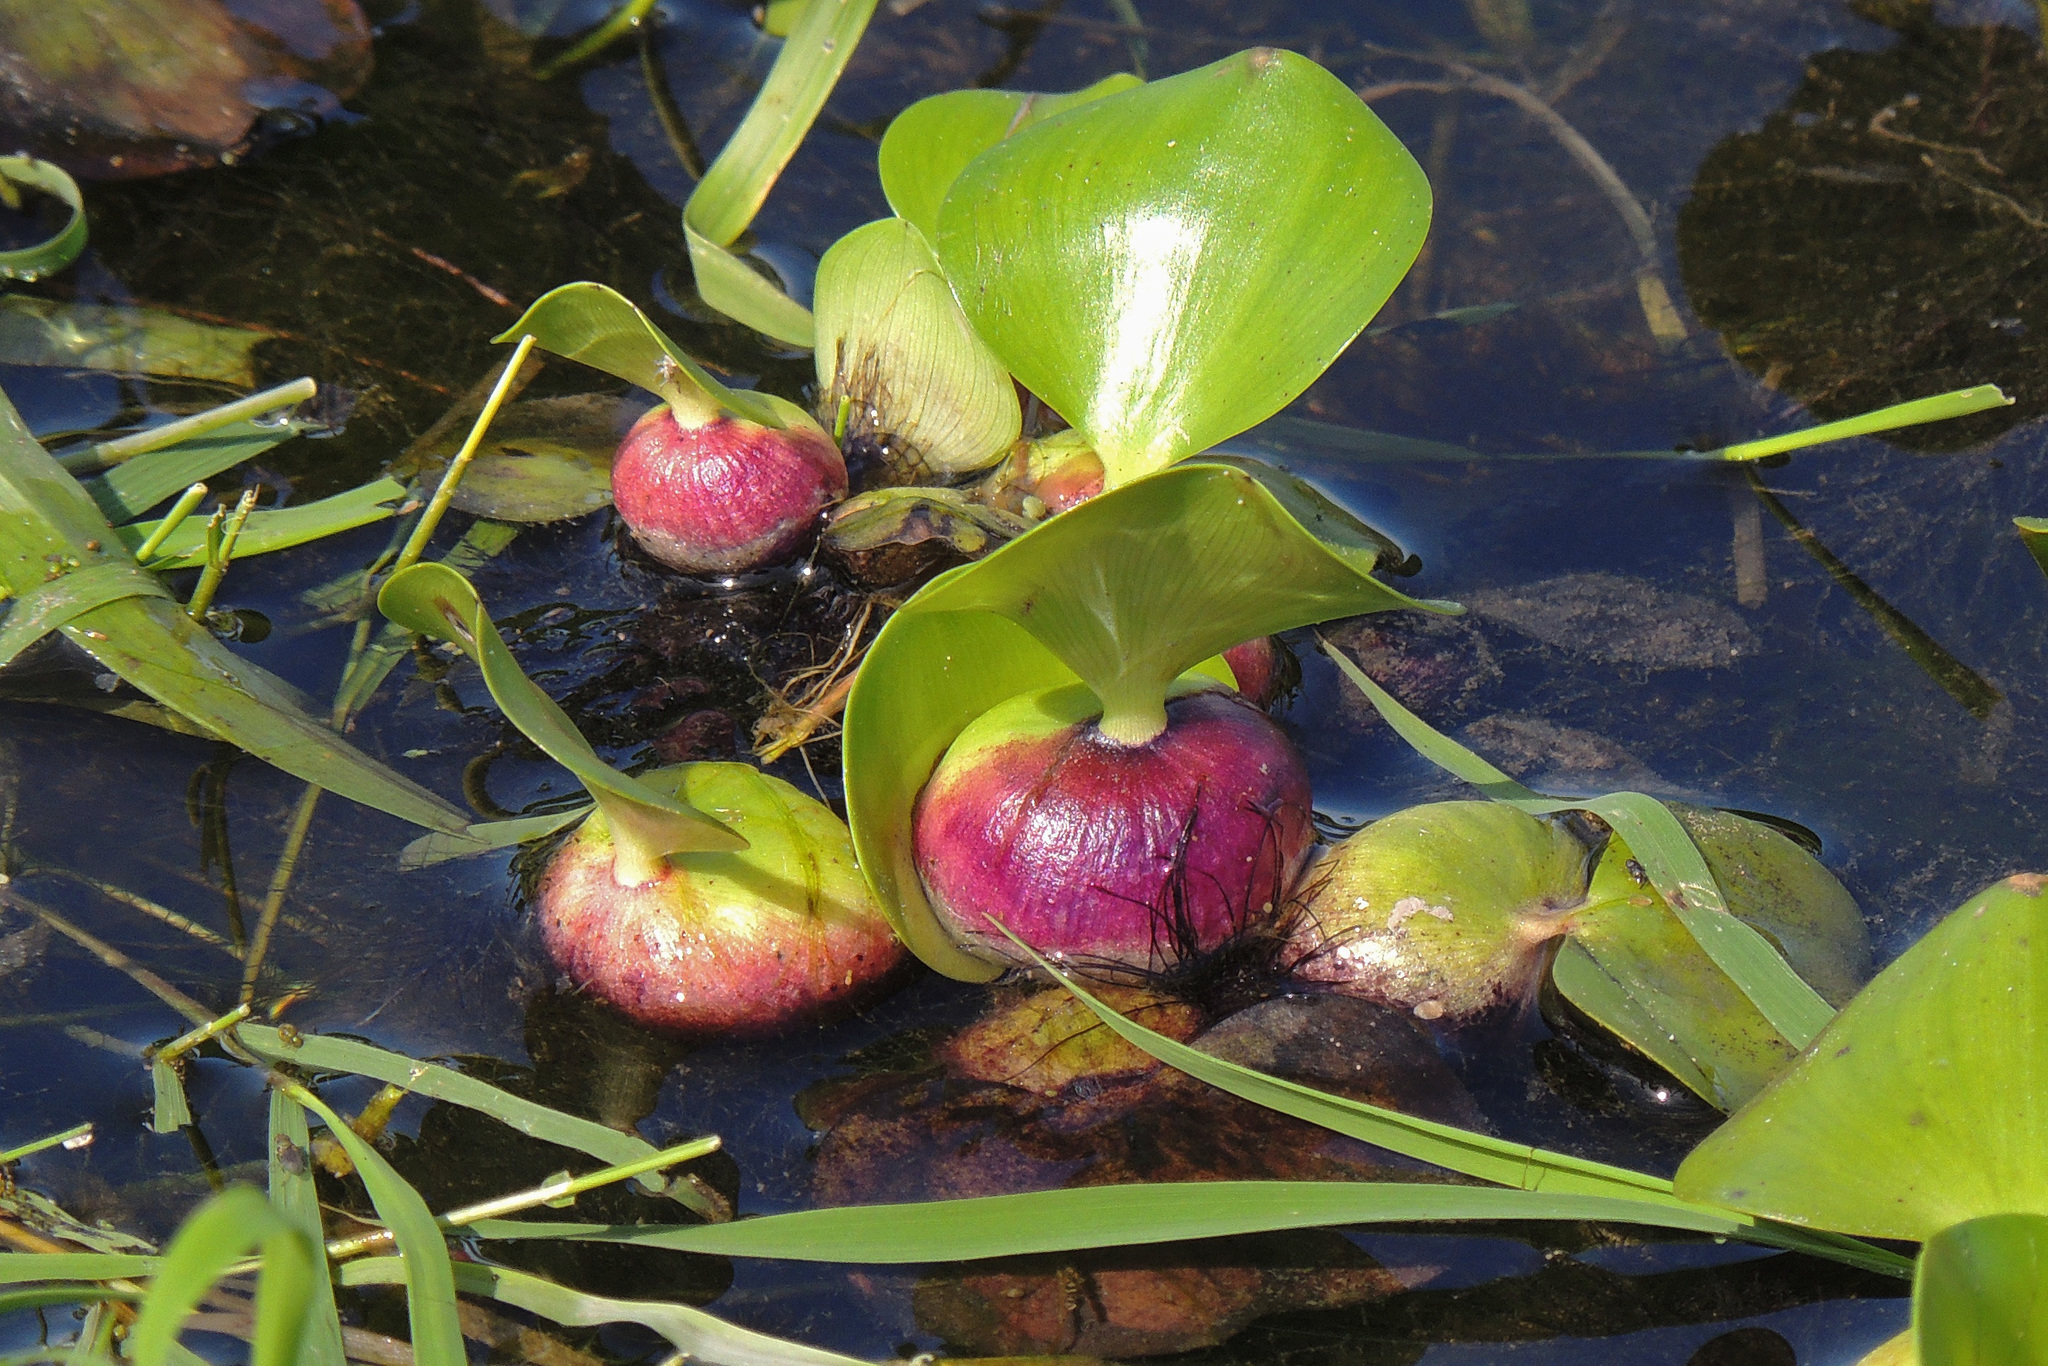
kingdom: Plantae
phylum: Tracheophyta
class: Liliopsida
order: Commelinales
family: Pontederiaceae
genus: Pontederia
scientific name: Pontederia crassipes
